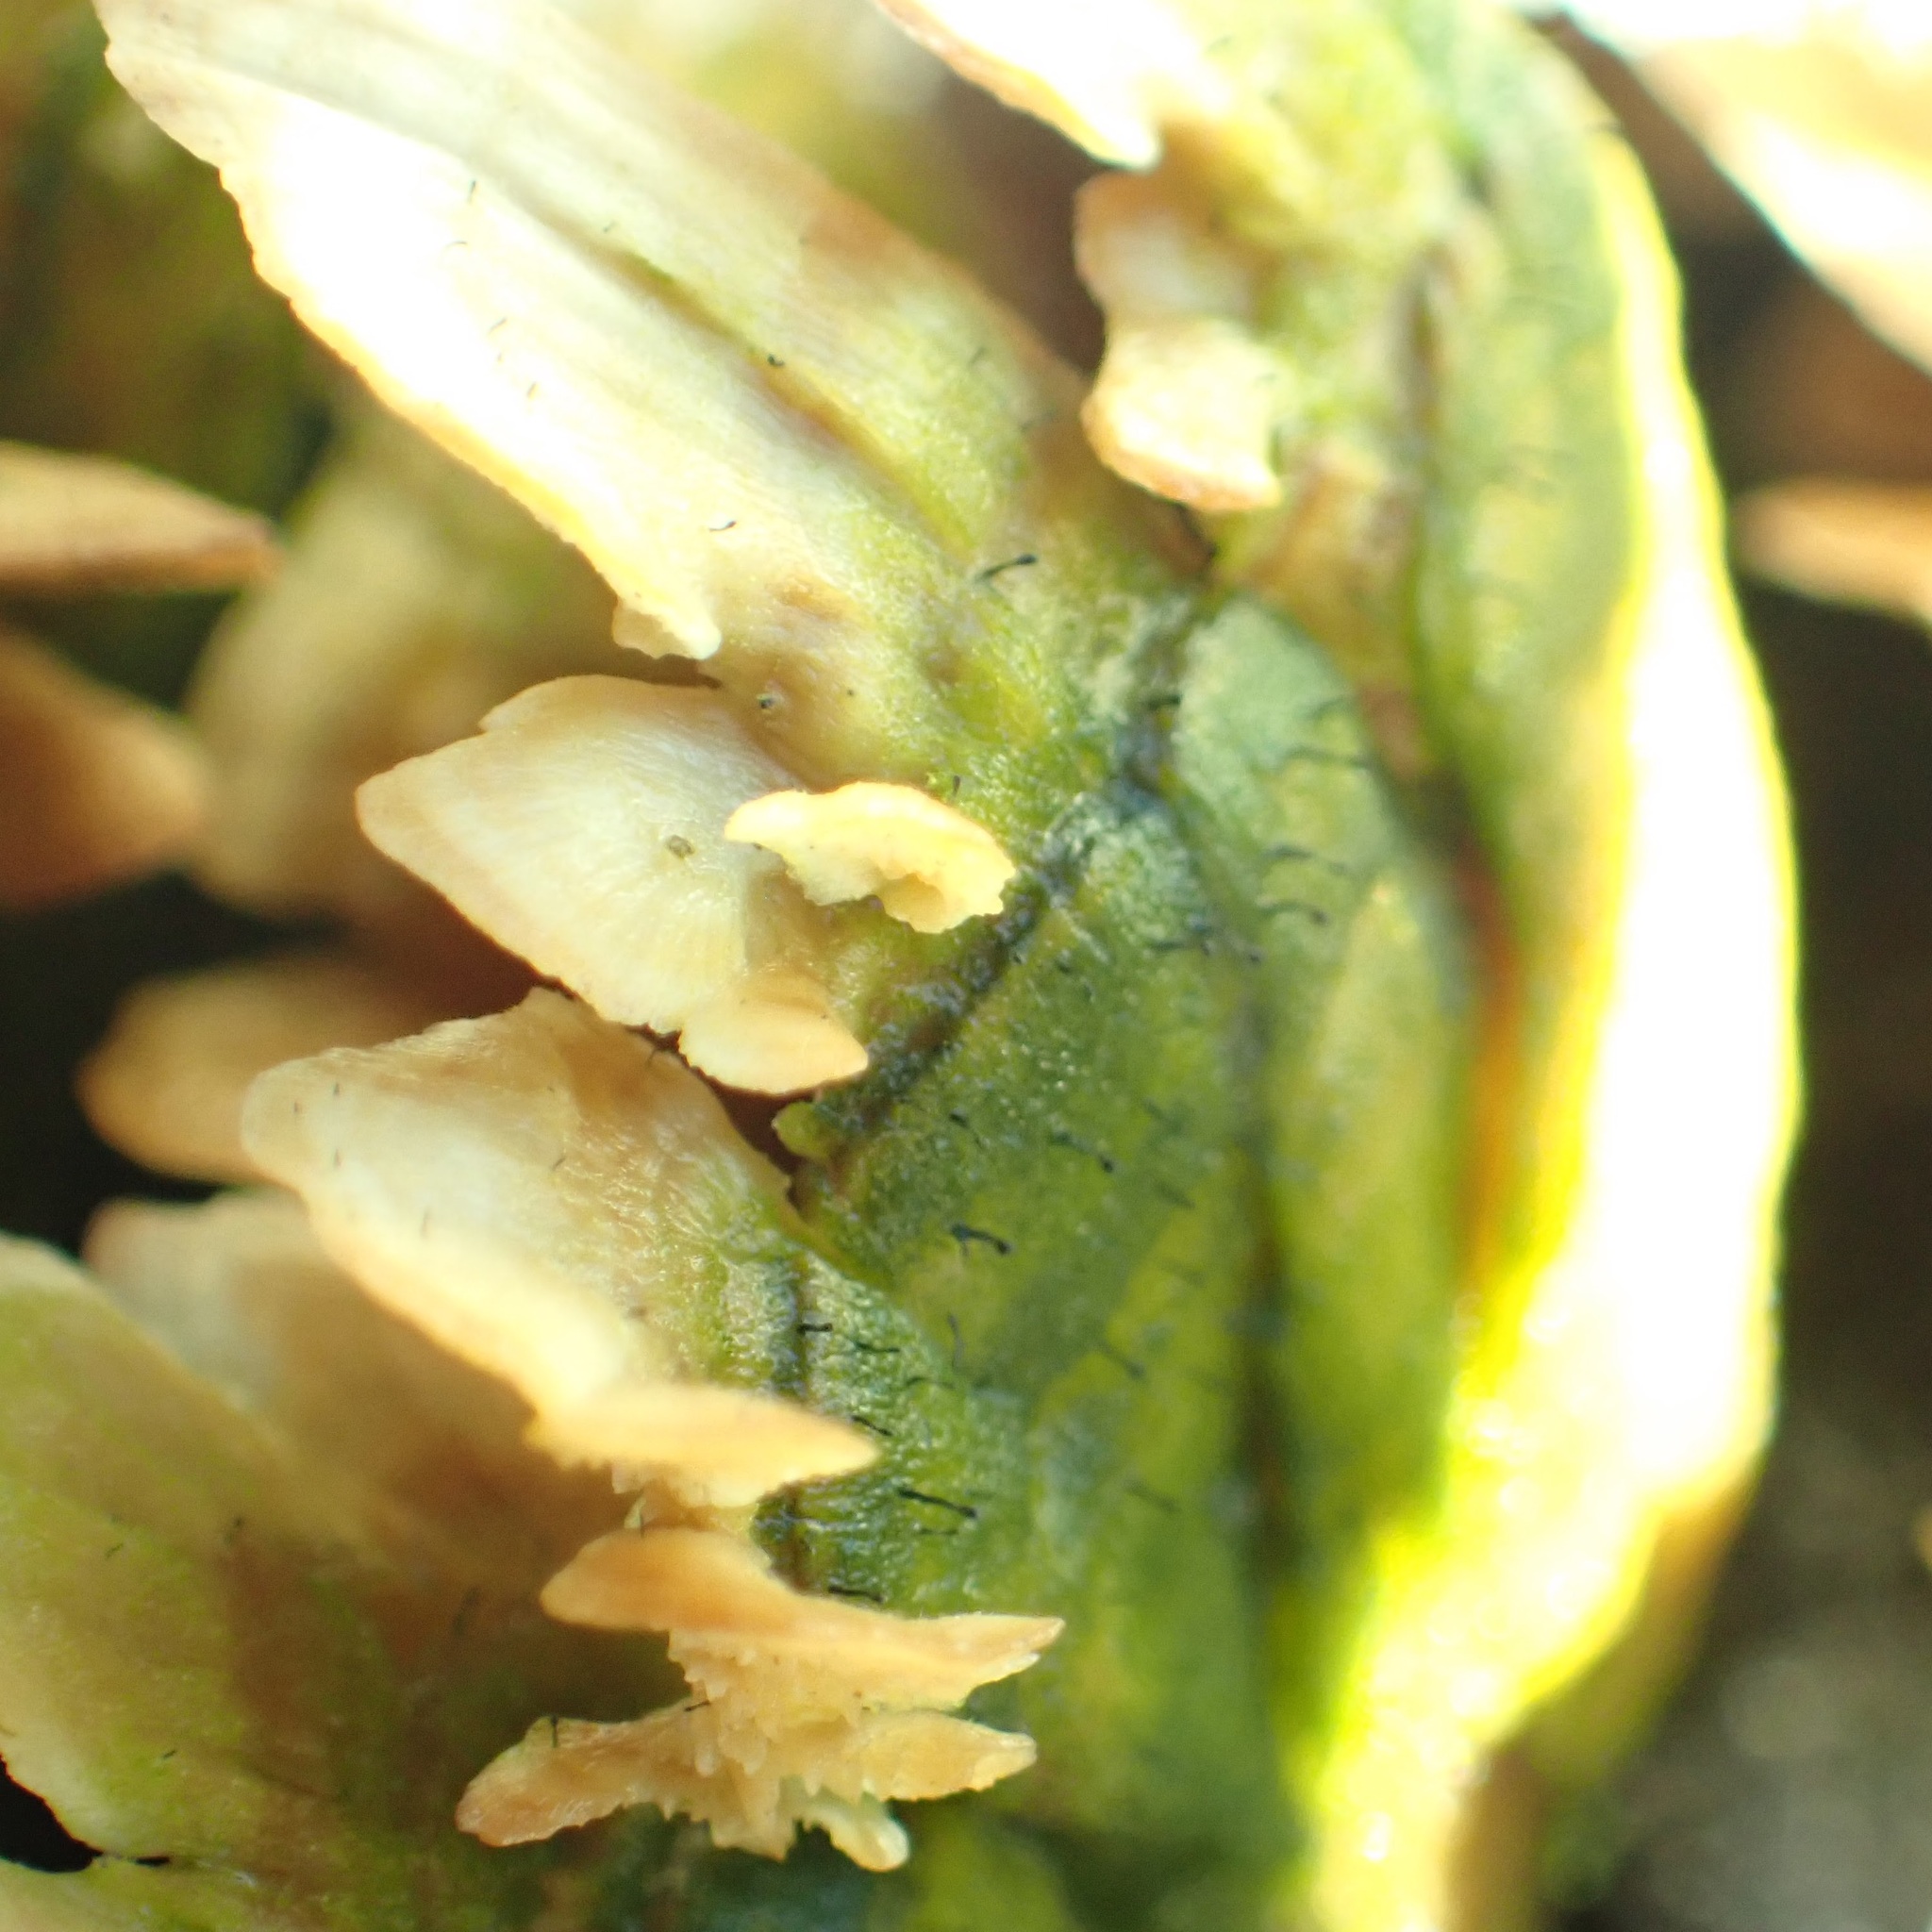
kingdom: Fungi
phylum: Ascomycota
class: Eurotiomycetes
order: Mycocaliciales
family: Mycocaliciaceae
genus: Phaeocalicium
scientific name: Phaeocalicium polyporaeum
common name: Fairy pins
